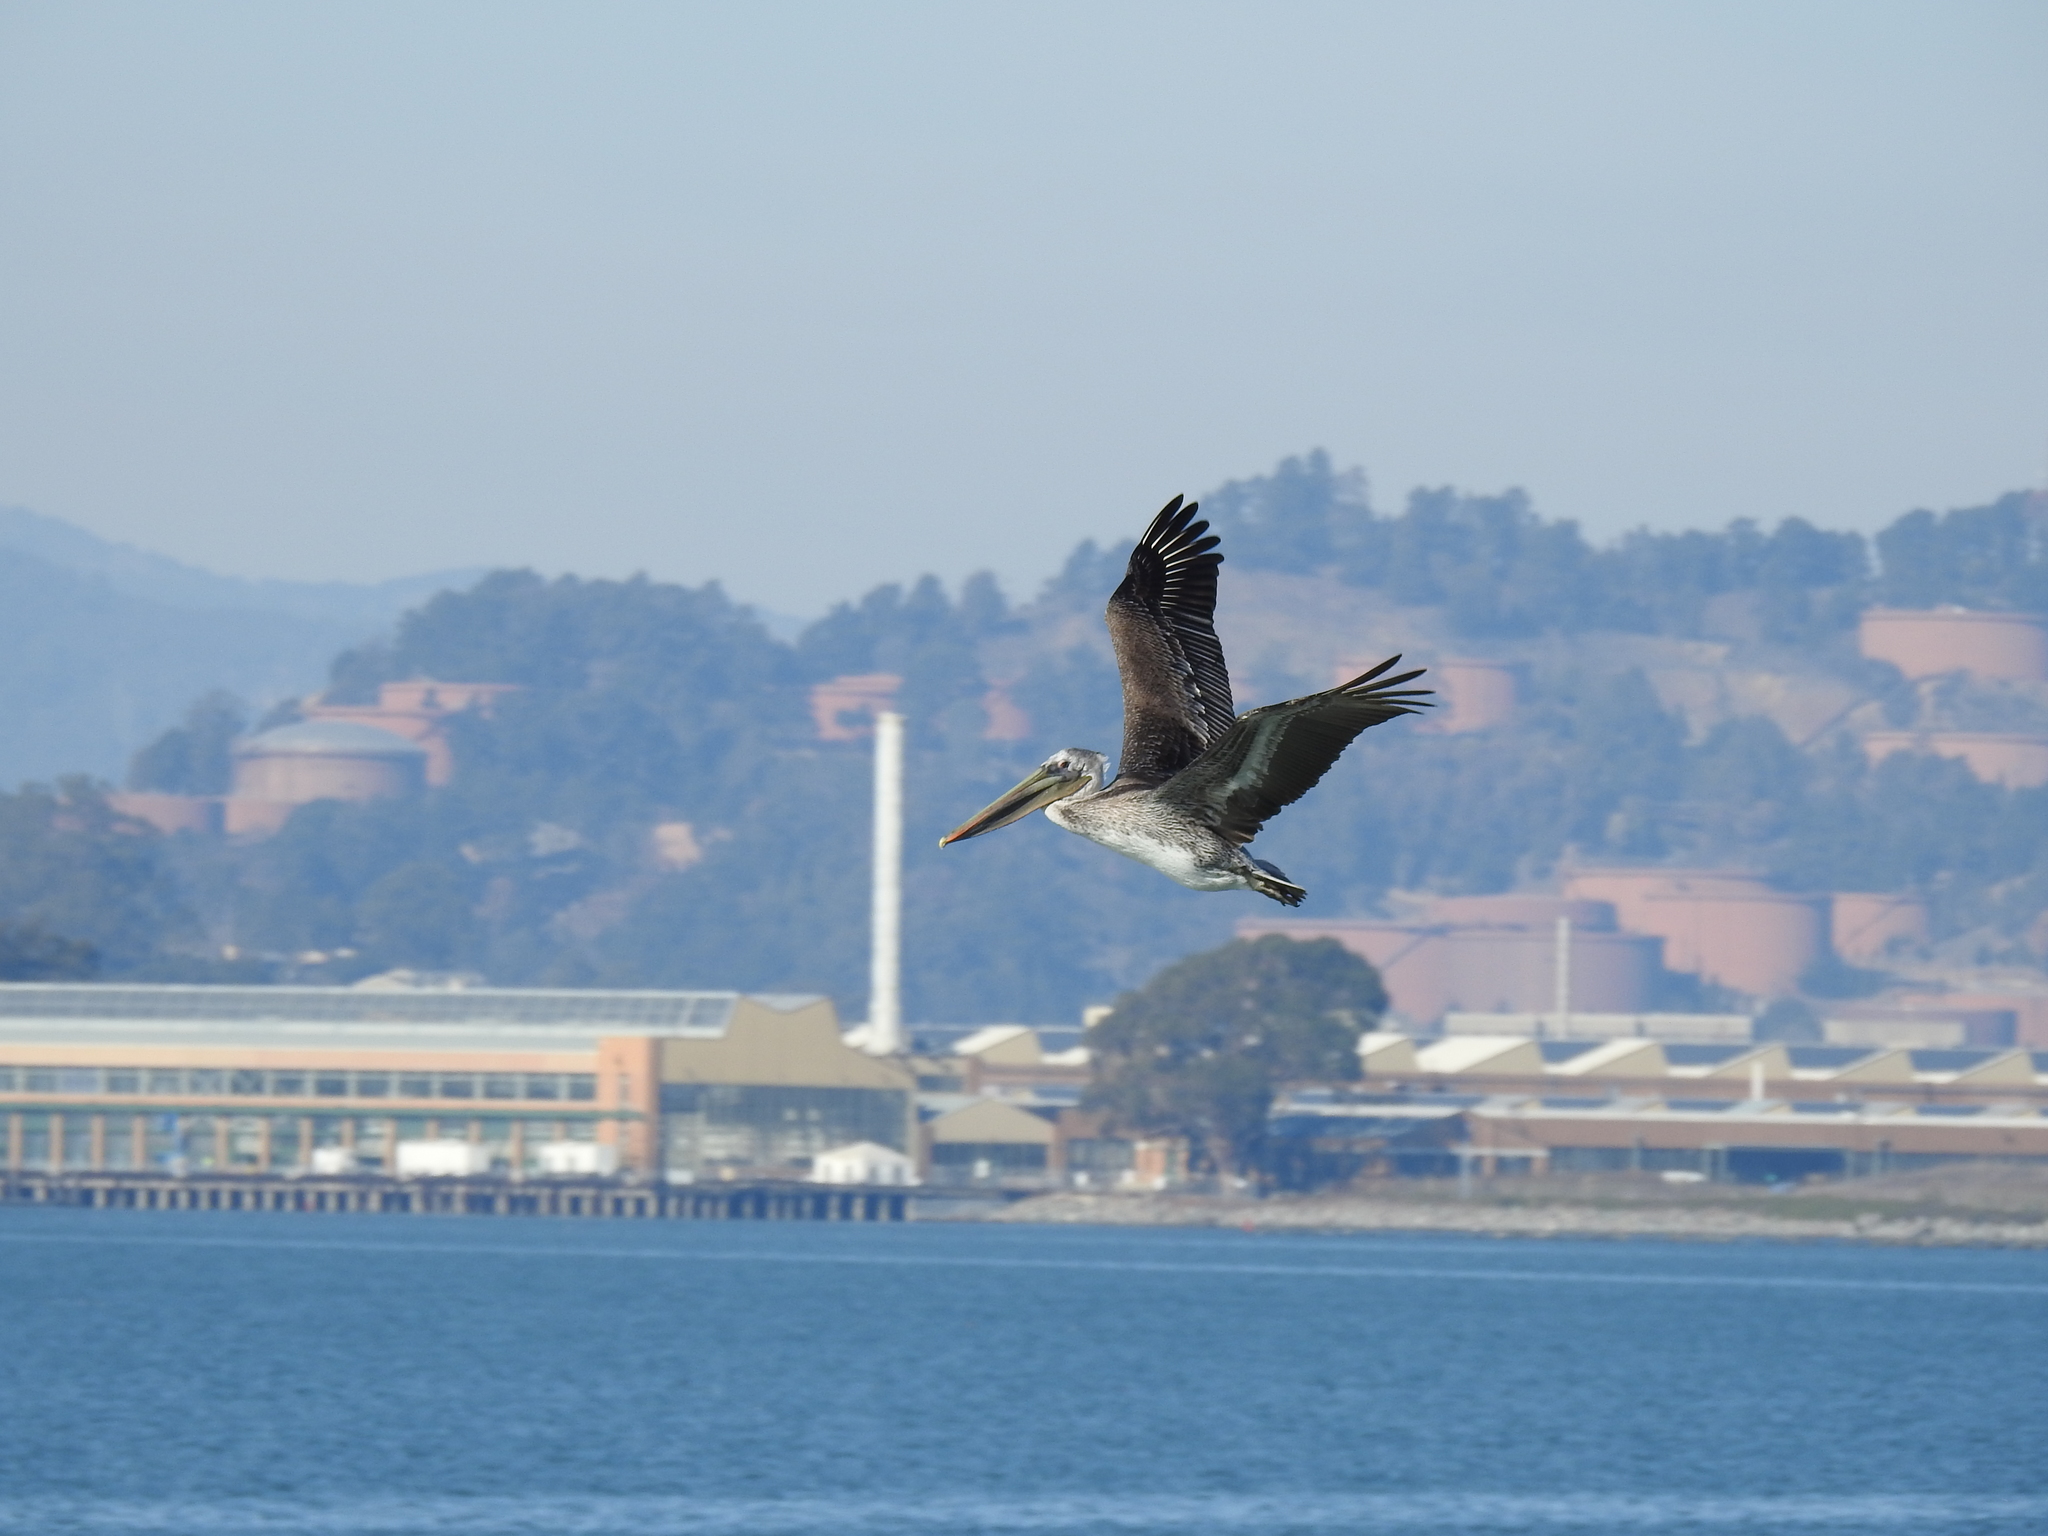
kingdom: Animalia
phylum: Chordata
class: Aves
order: Pelecaniformes
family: Pelecanidae
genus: Pelecanus
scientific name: Pelecanus occidentalis
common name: Brown pelican
